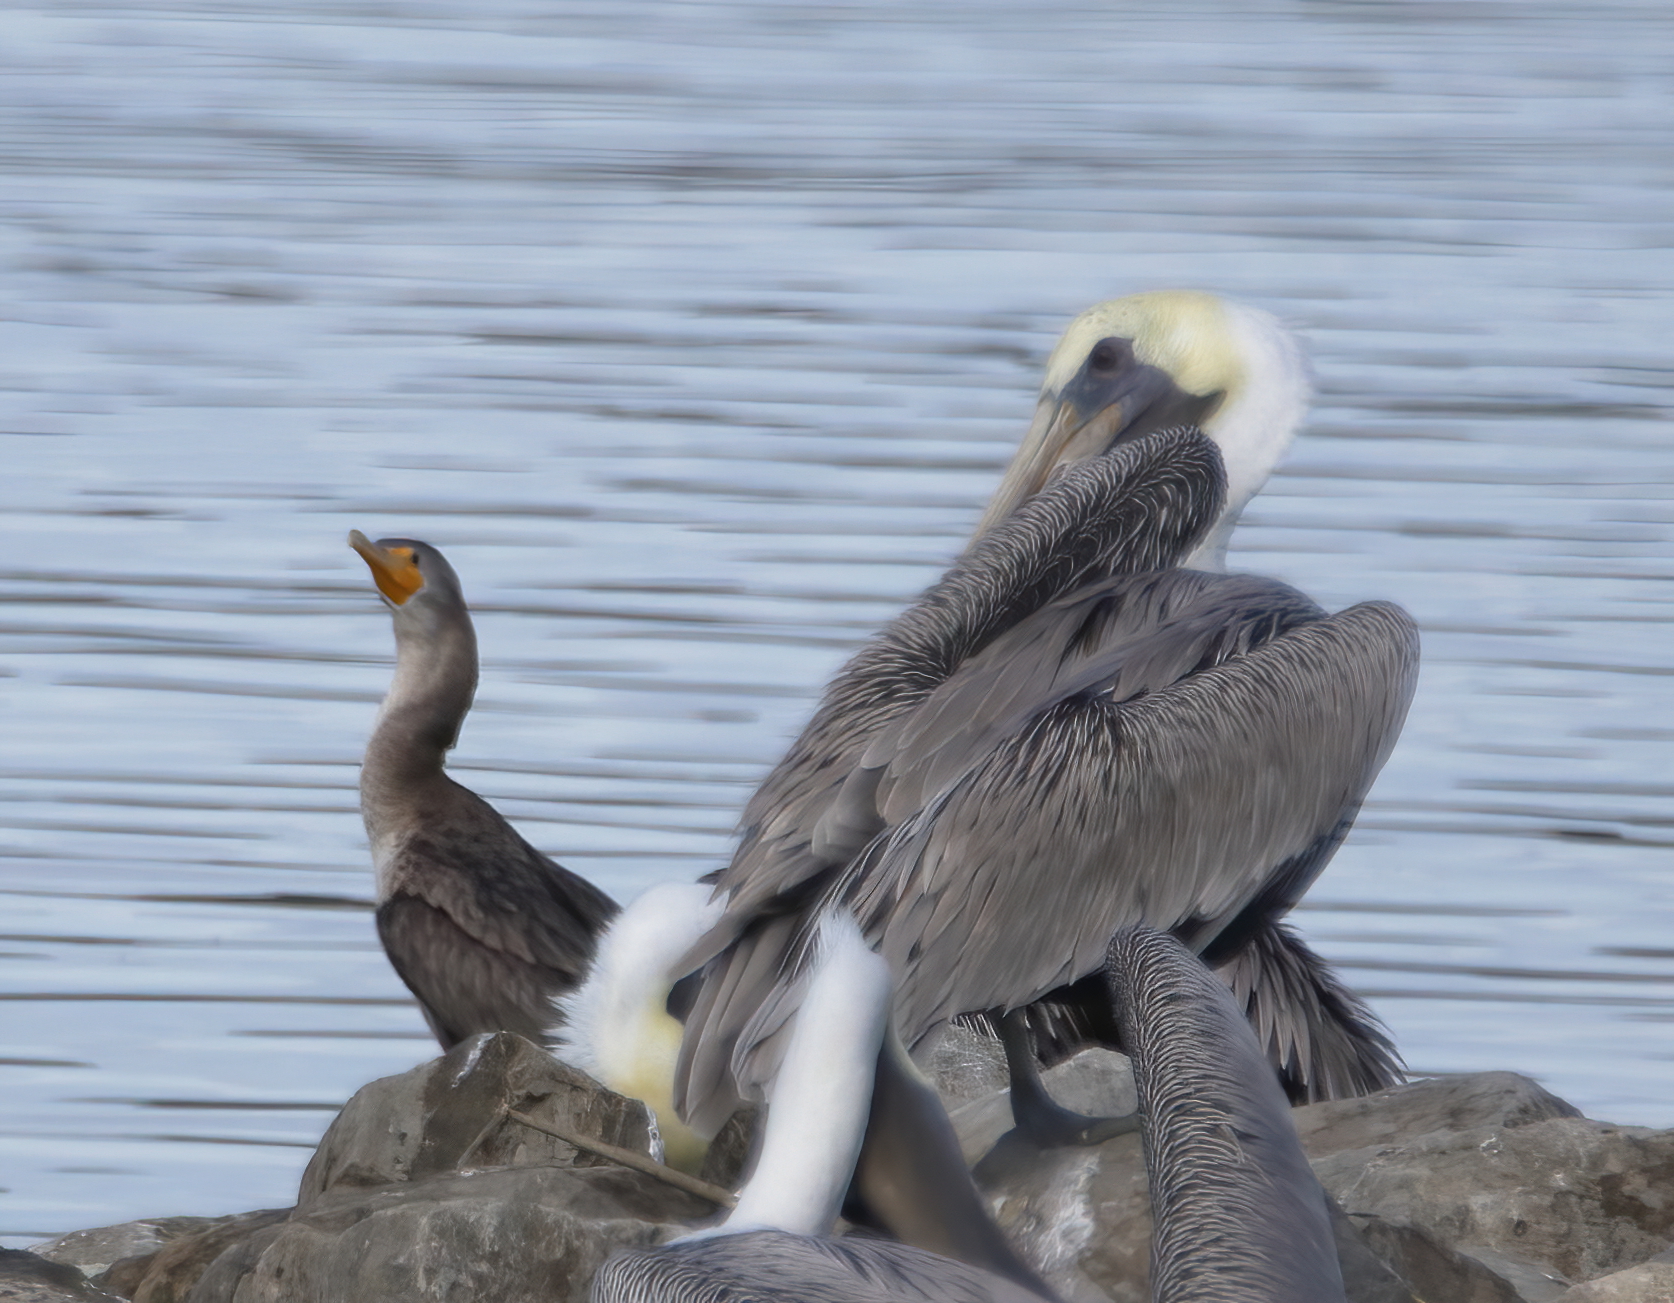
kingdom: Animalia
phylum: Chordata
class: Aves
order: Suliformes
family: Phalacrocoracidae
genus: Phalacrocorax
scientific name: Phalacrocorax auritus
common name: Double-crested cormorant
